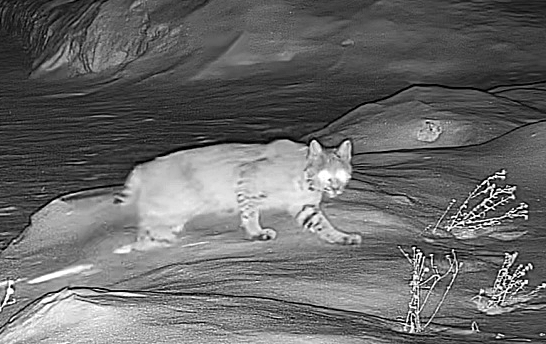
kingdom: Animalia
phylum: Chordata
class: Mammalia
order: Carnivora
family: Felidae
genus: Lynx
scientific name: Lynx rufus
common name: Bobcat
